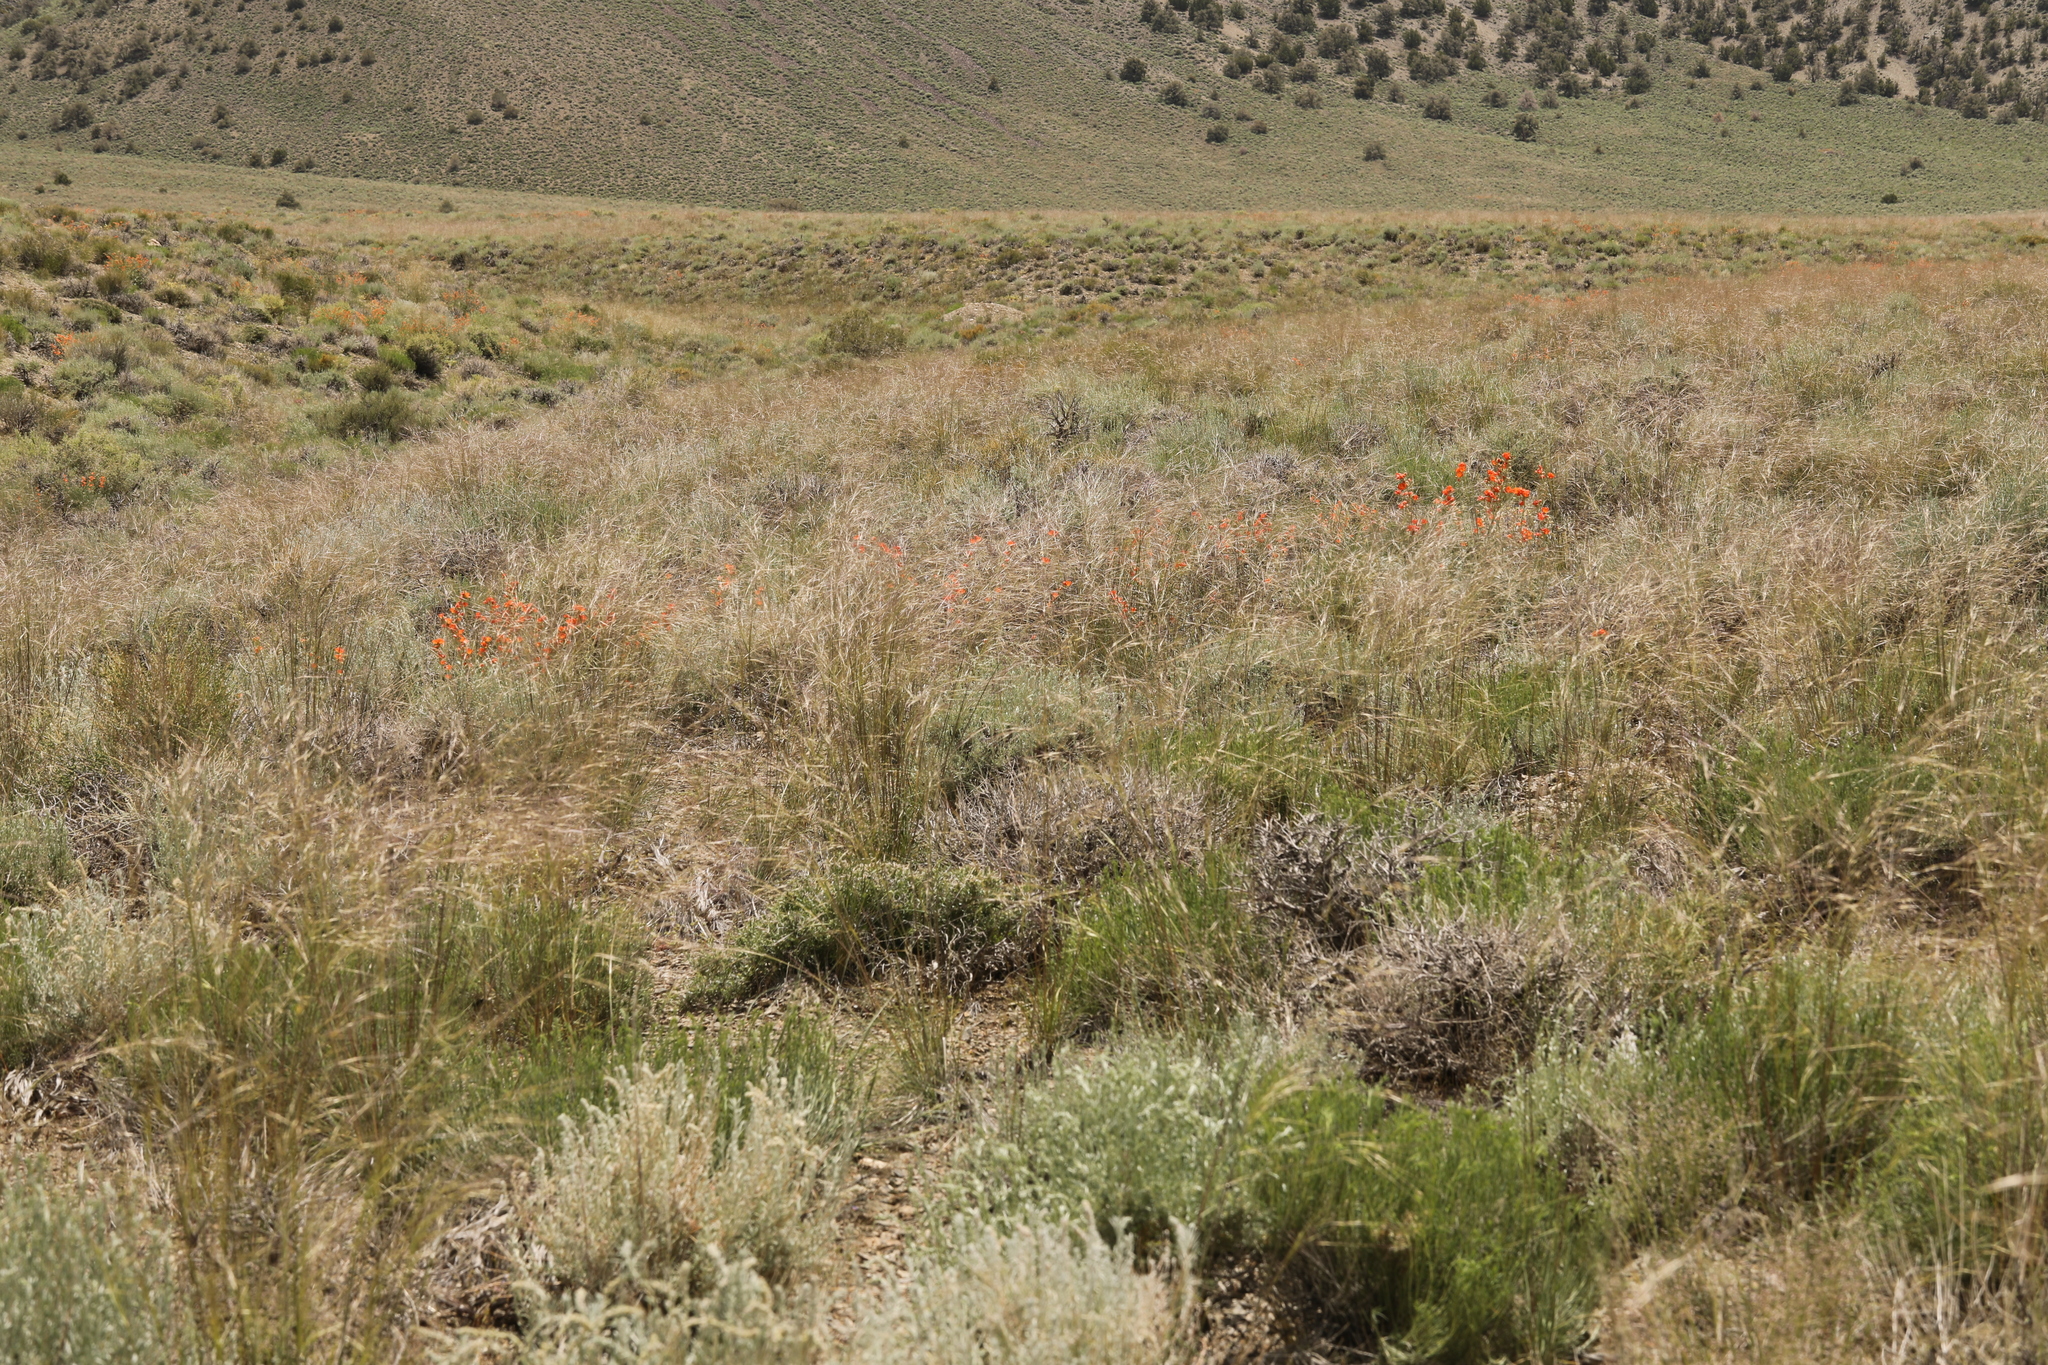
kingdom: Plantae
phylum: Tracheophyta
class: Liliopsida
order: Poales
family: Poaceae
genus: Hesperostipa
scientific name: Hesperostipa comata
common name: Needle-and-thread grass
